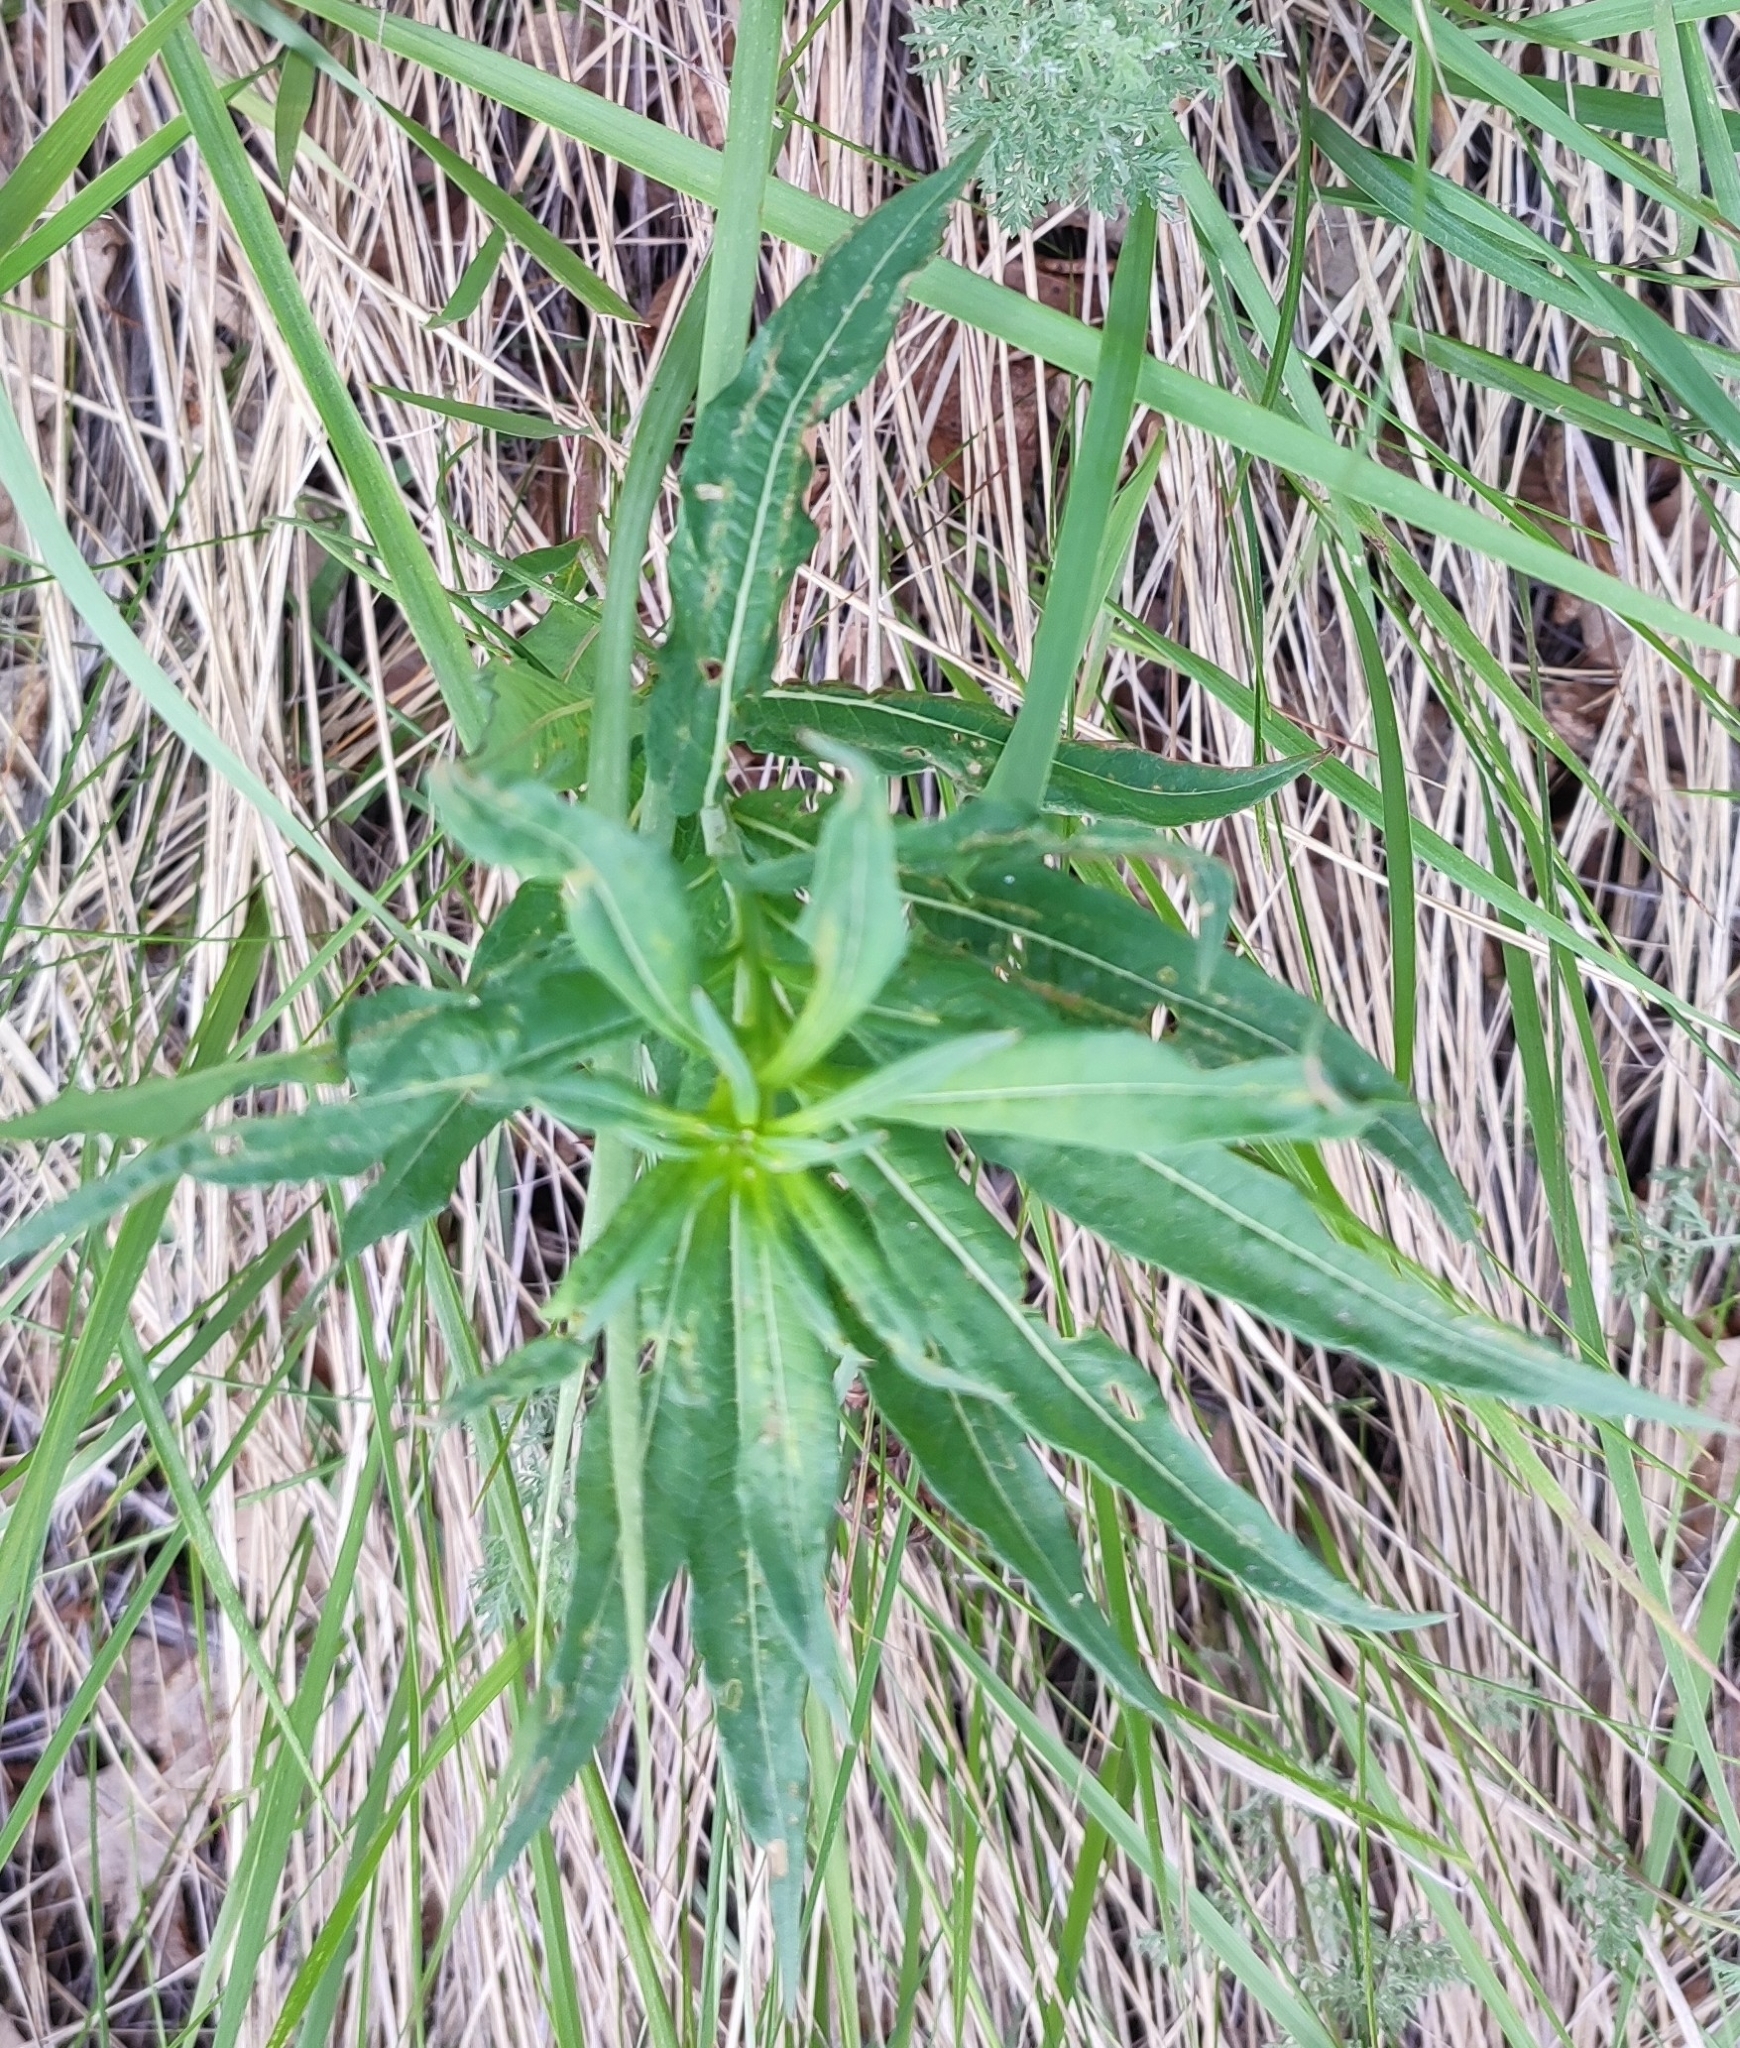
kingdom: Plantae
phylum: Tracheophyta
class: Magnoliopsida
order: Myrtales
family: Onagraceae
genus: Chamaenerion
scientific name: Chamaenerion angustifolium
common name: Fireweed
